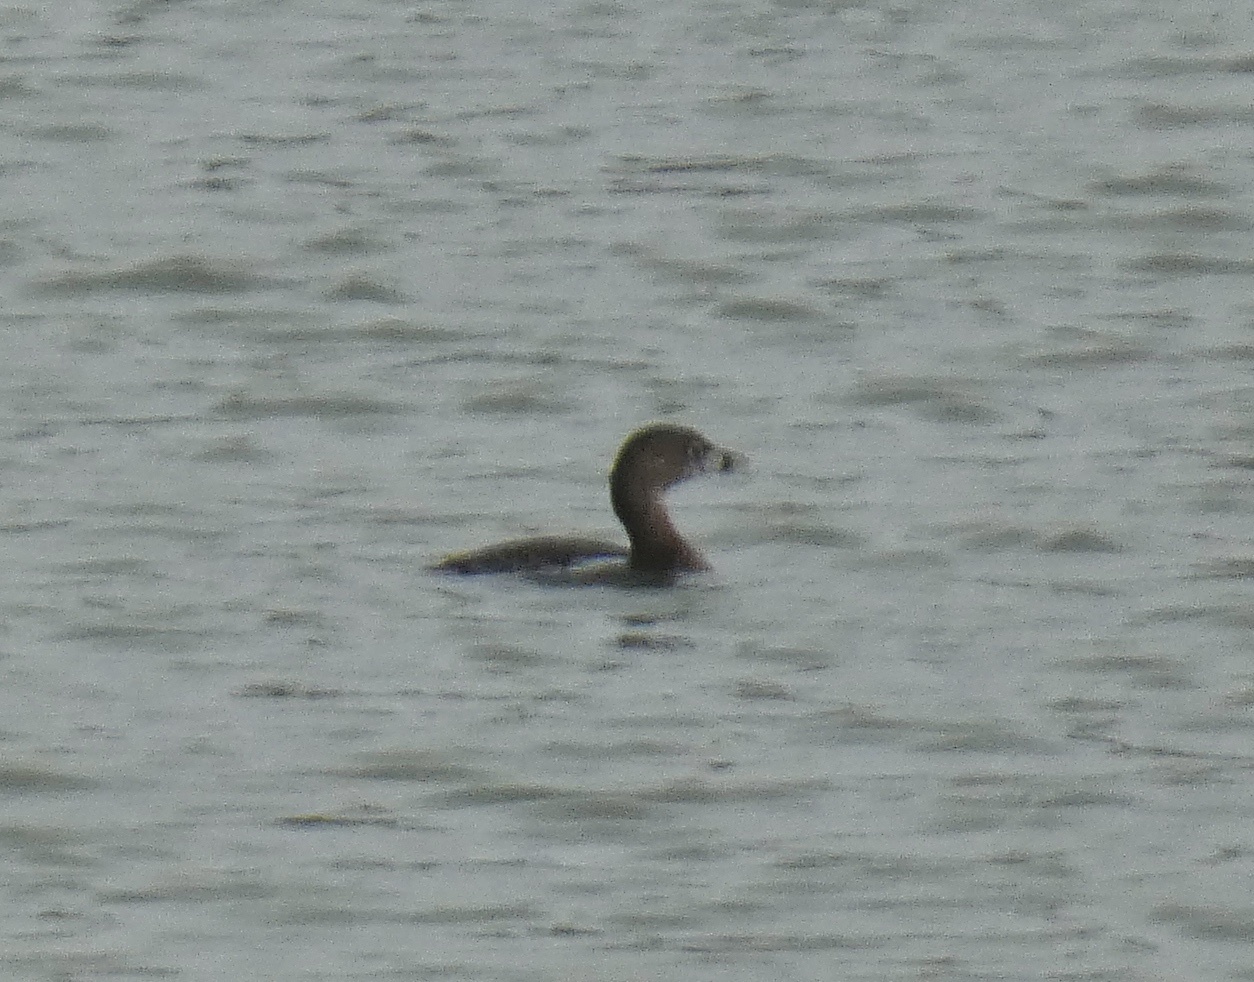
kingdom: Animalia
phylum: Chordata
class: Aves
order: Podicipediformes
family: Podicipedidae
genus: Podilymbus
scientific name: Podilymbus podiceps
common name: Pied-billed grebe
